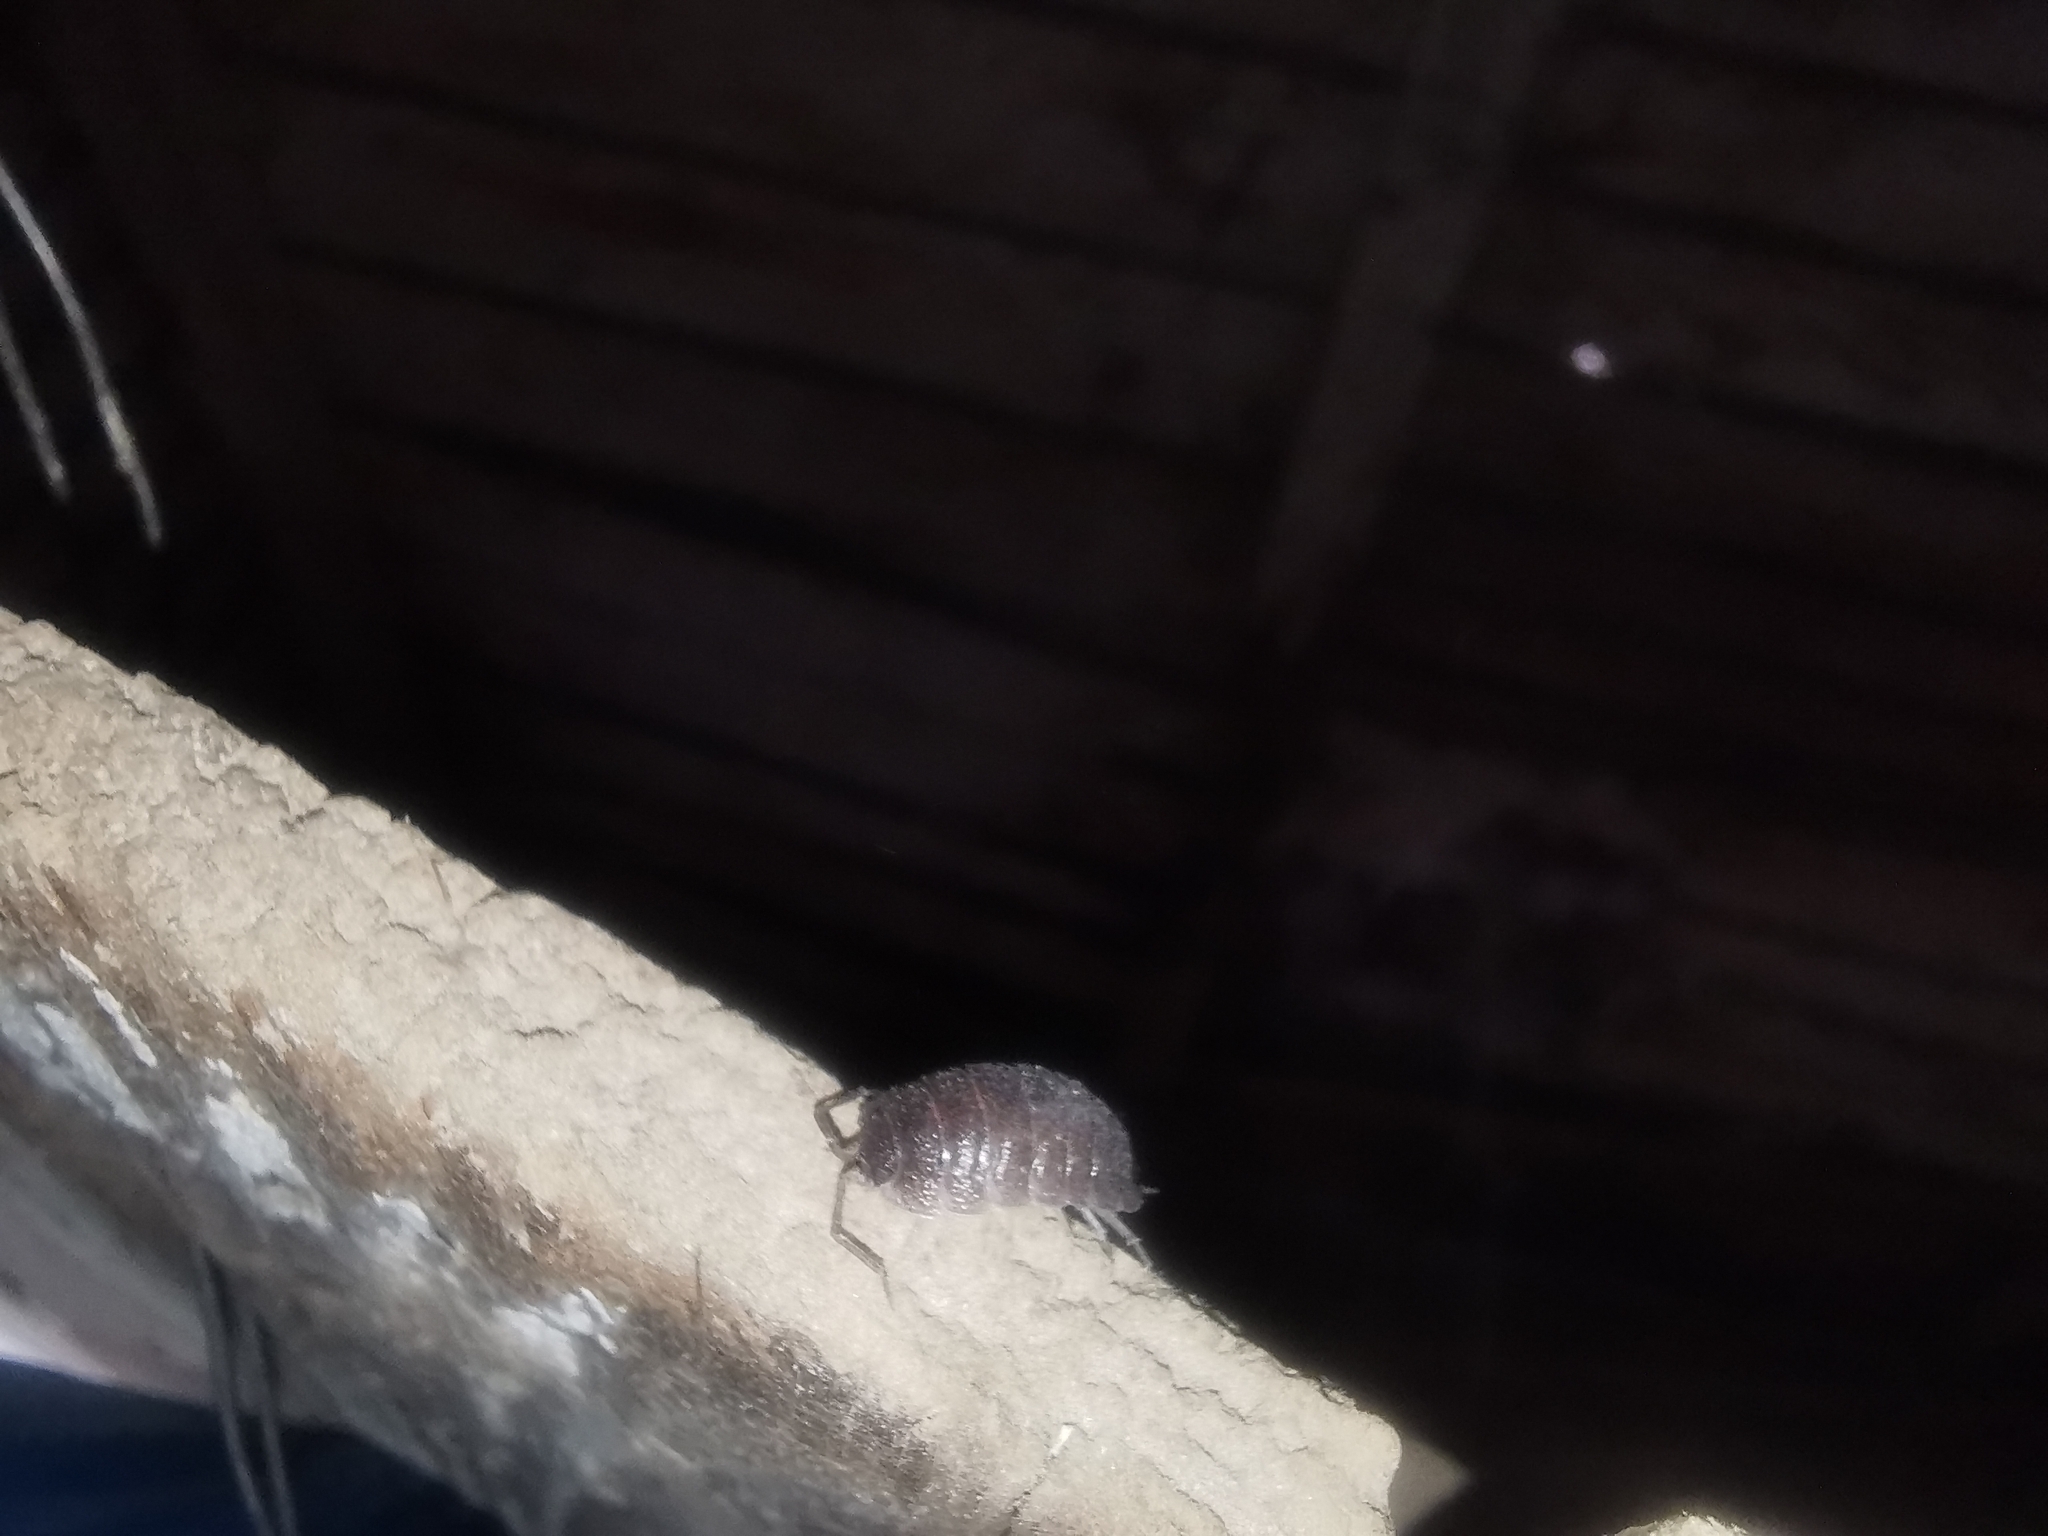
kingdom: Animalia
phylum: Arthropoda
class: Malacostraca
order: Isopoda
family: Porcellionidae
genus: Porcellio
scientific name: Porcellio obsoletus
